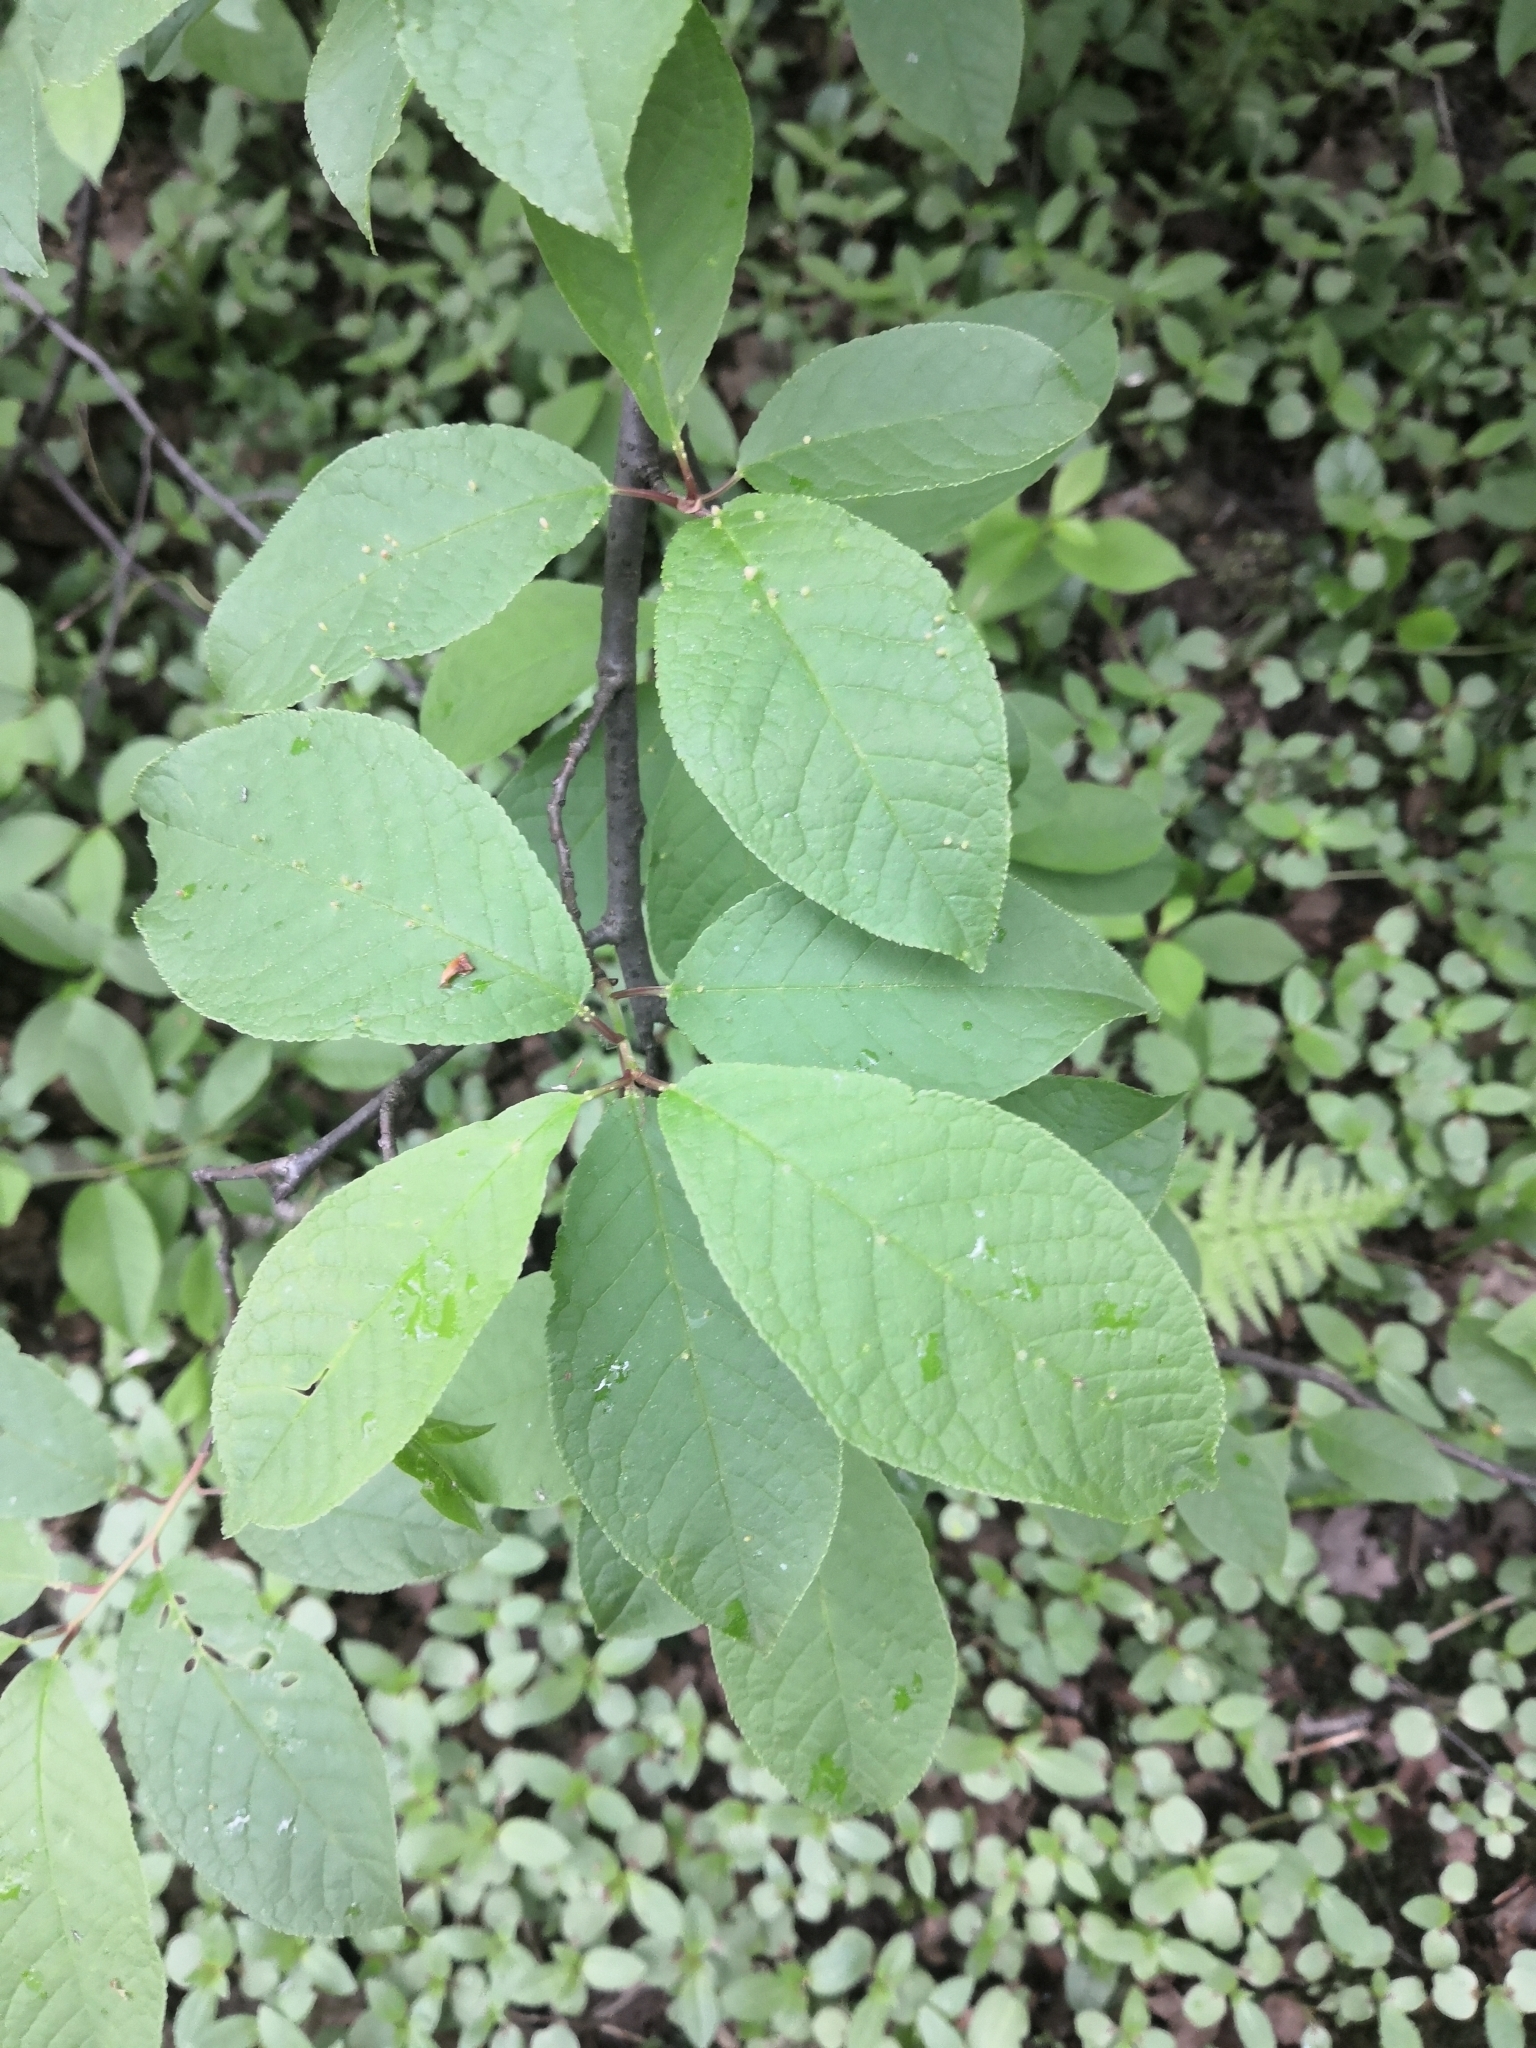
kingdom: Plantae
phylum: Tracheophyta
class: Magnoliopsida
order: Rosales
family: Rosaceae
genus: Prunus
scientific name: Prunus padus
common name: Bird cherry
